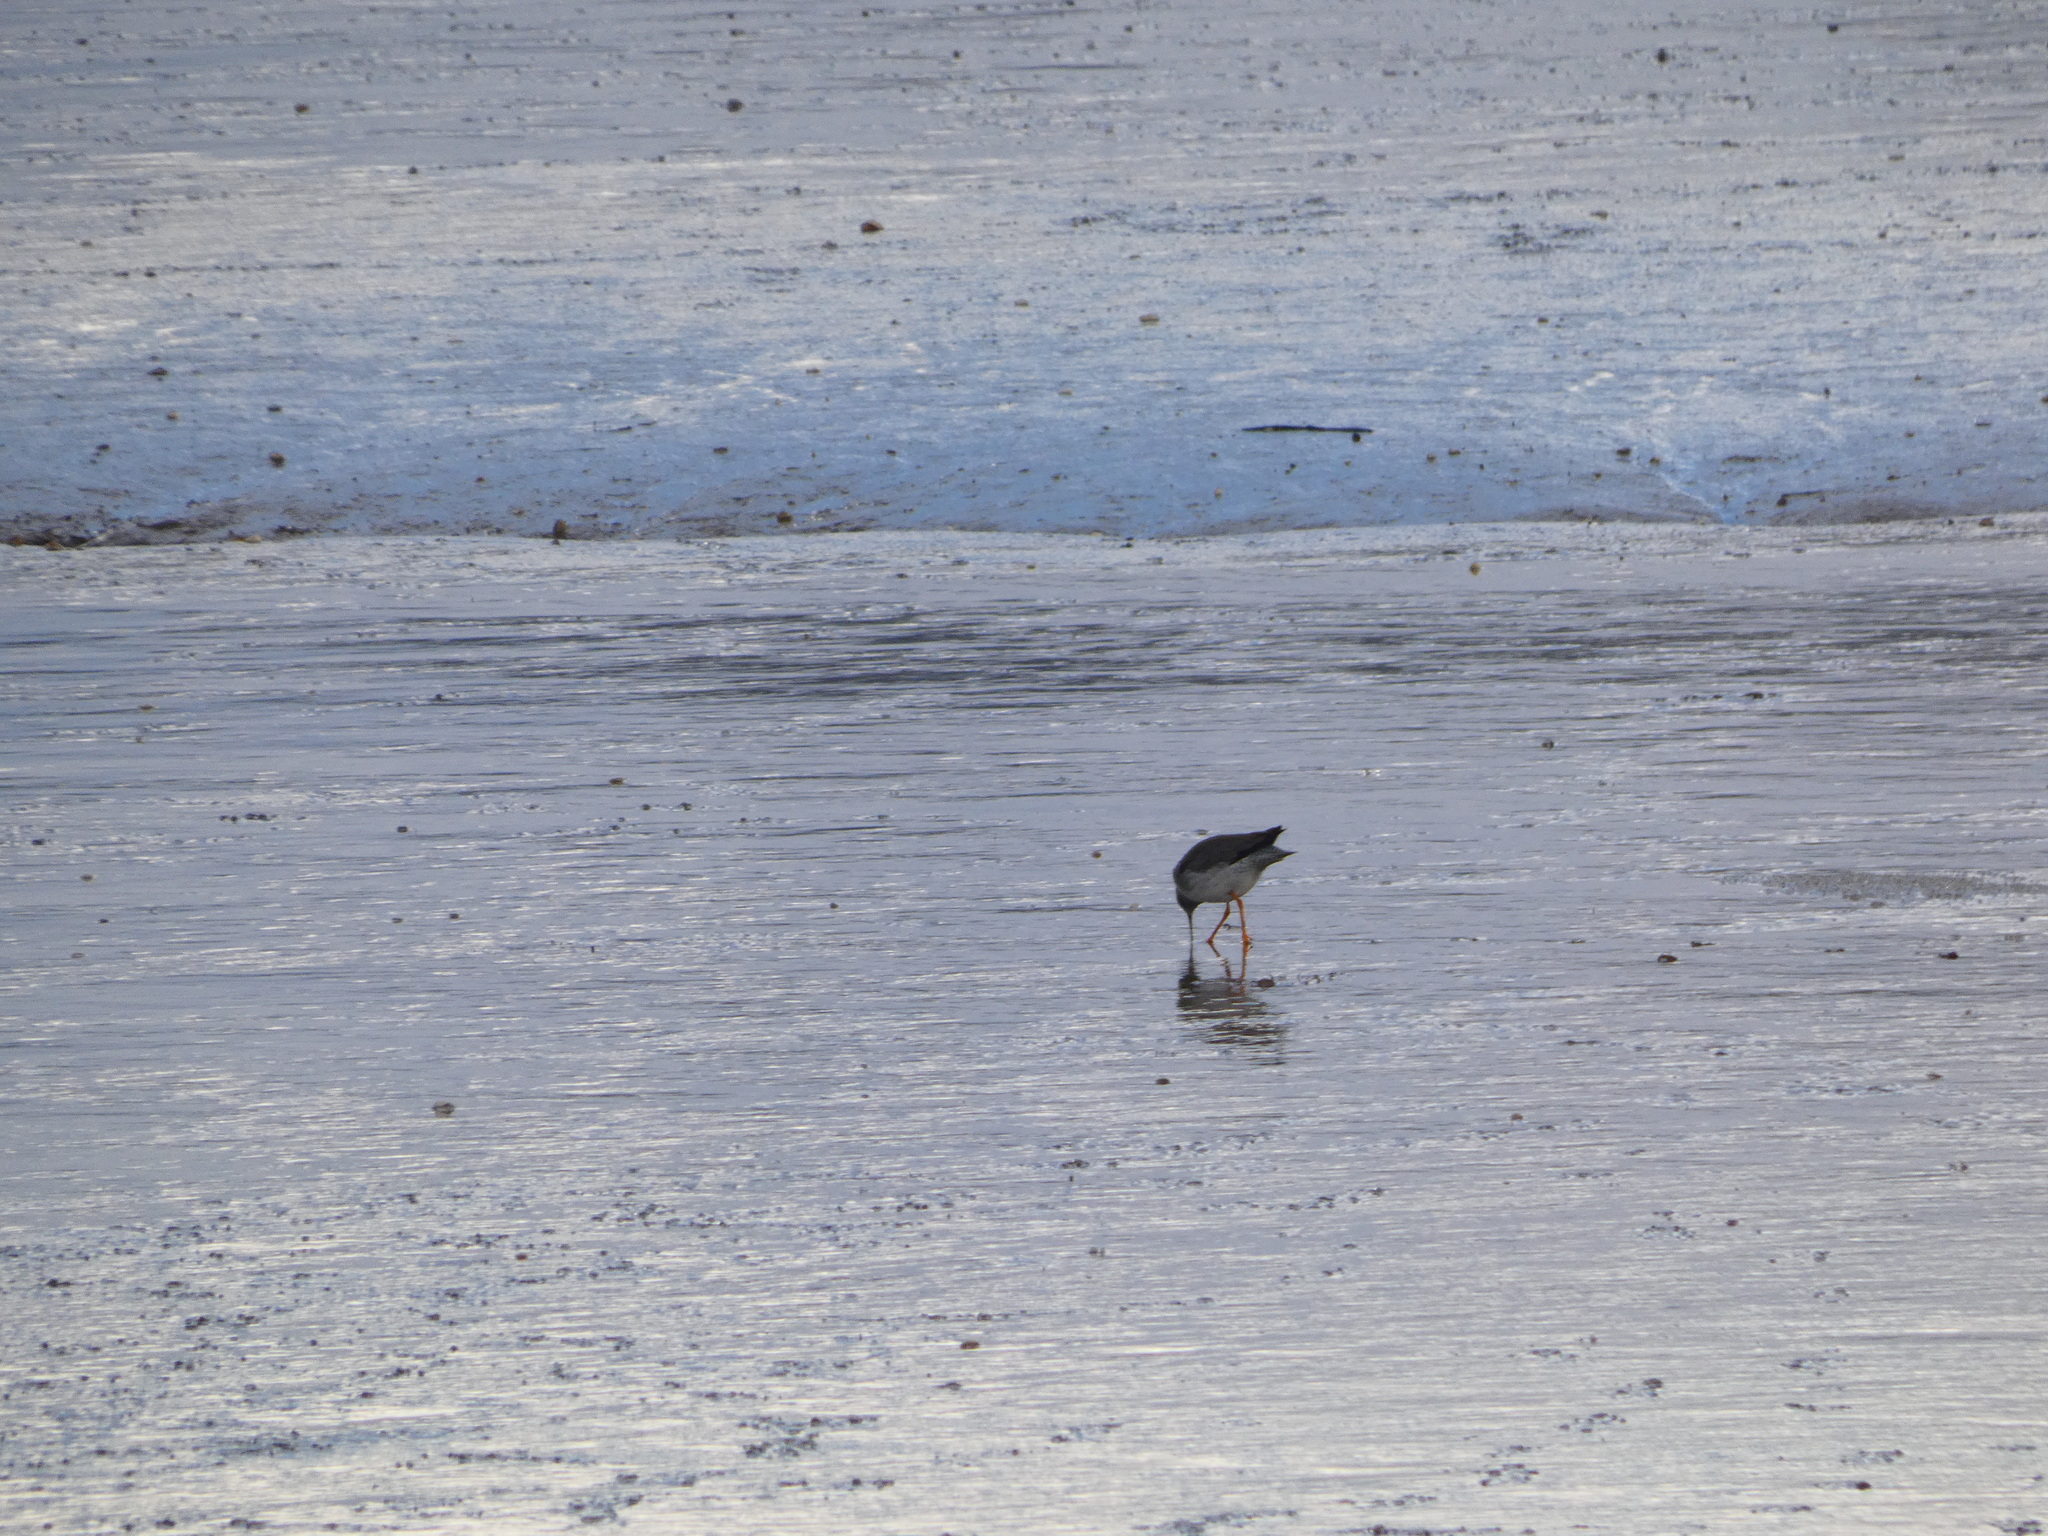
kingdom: Animalia
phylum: Chordata
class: Aves
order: Charadriiformes
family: Scolopacidae
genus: Tringa
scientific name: Tringa totanus
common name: Common redshank
